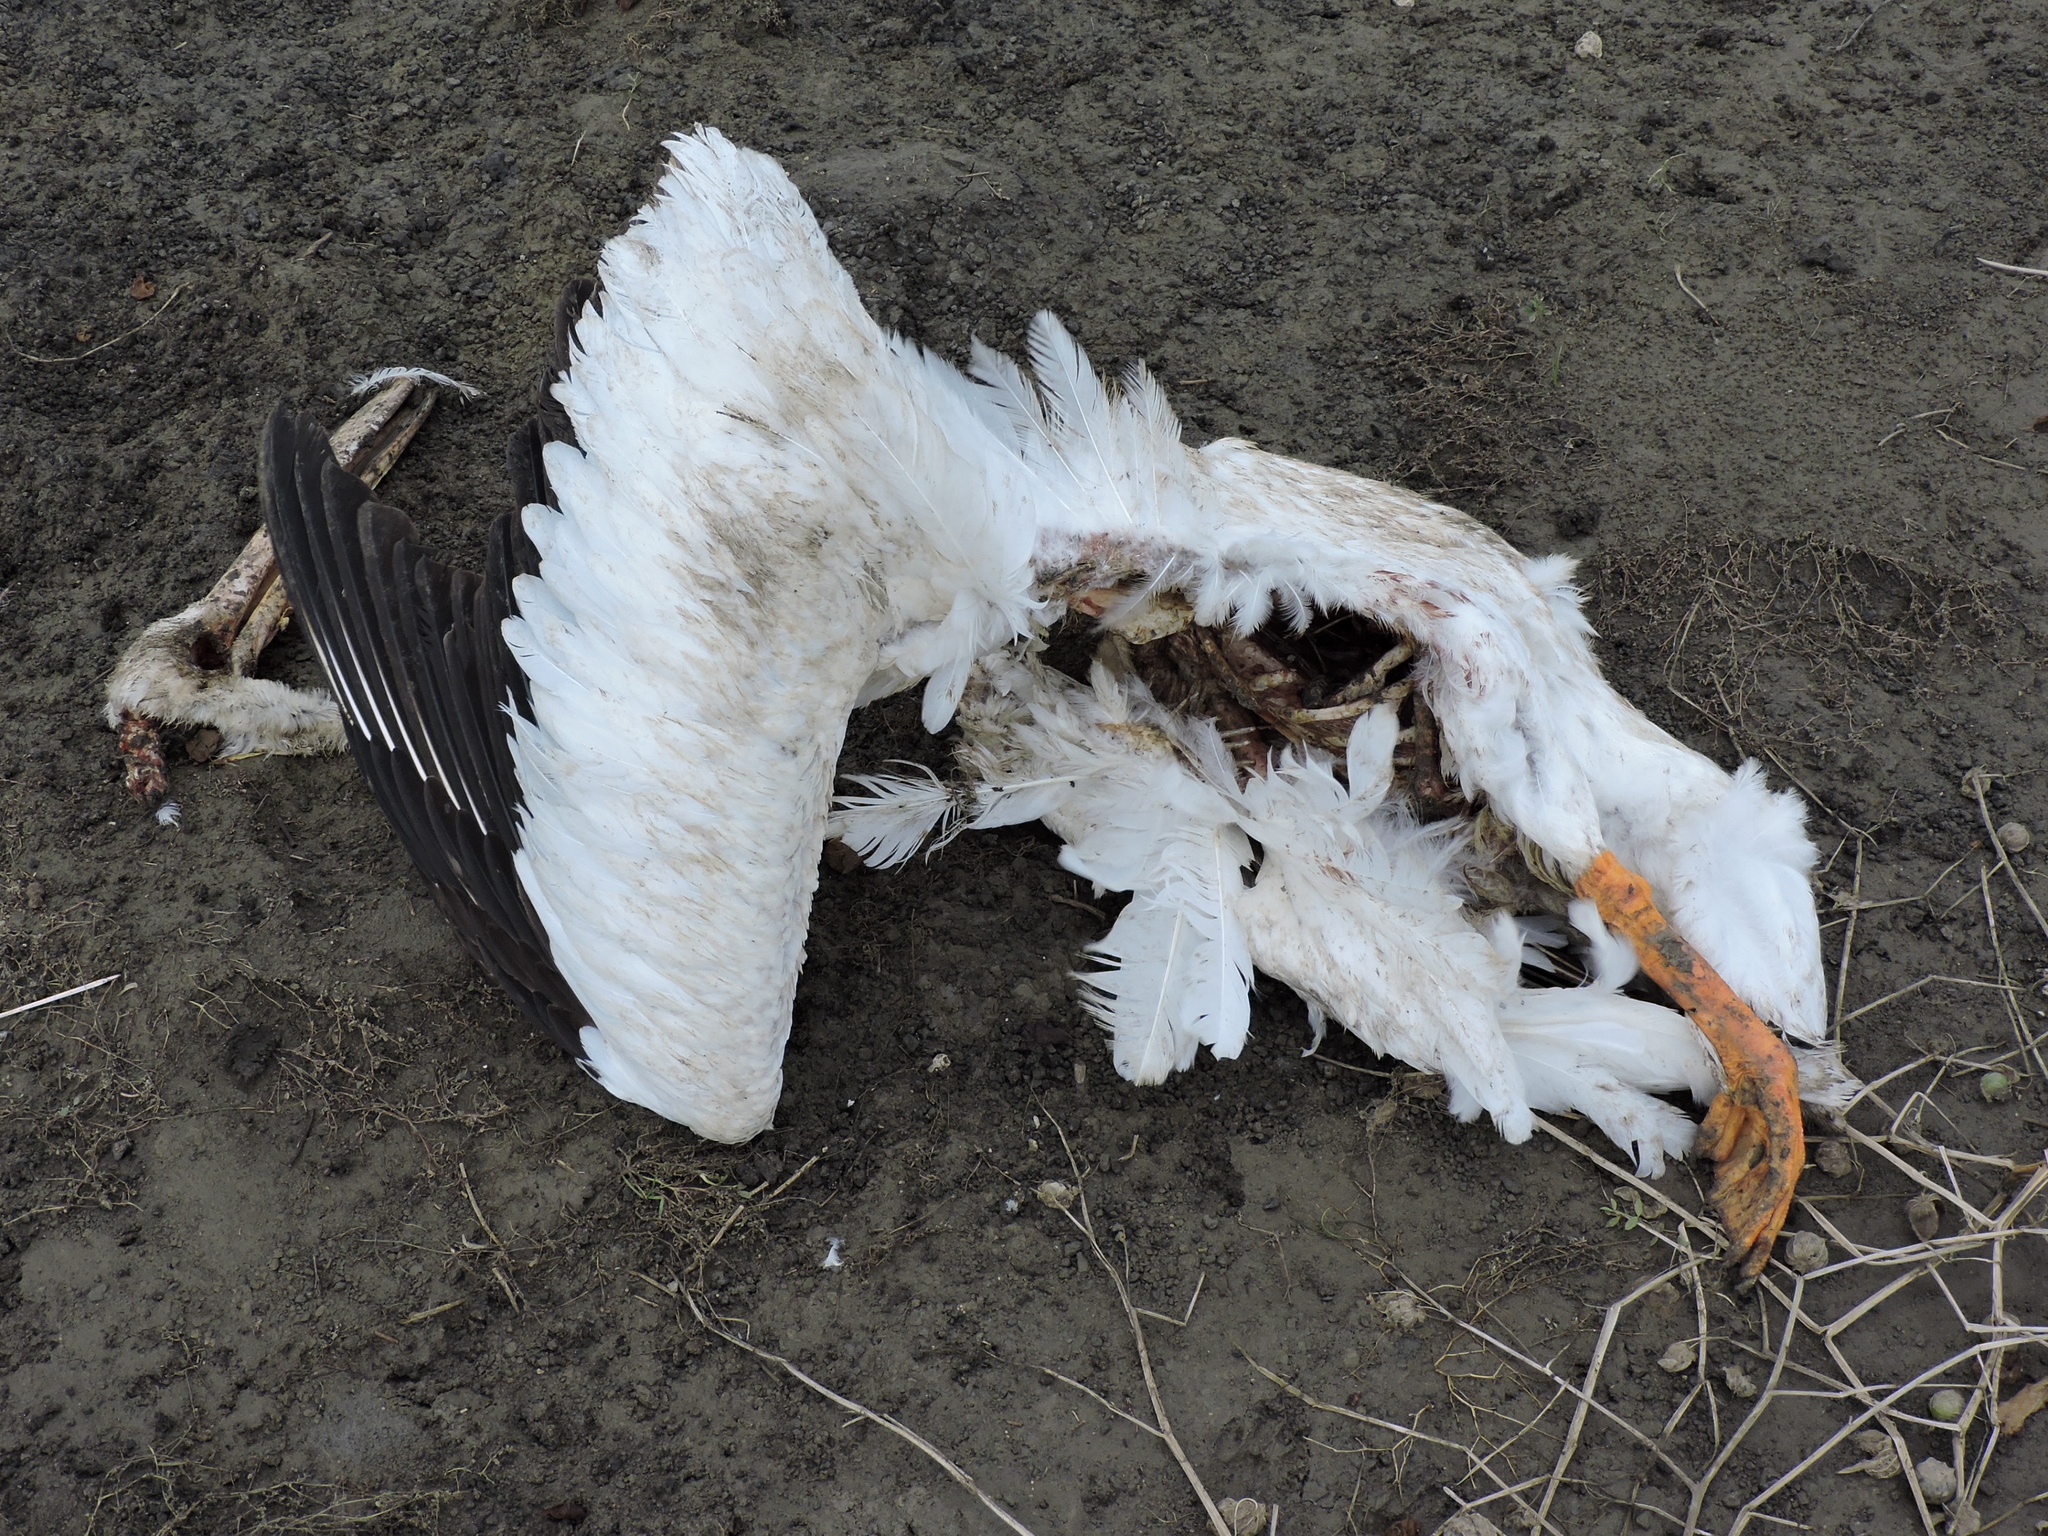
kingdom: Animalia
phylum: Chordata
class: Aves
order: Pelecaniformes
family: Pelecanidae
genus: Pelecanus
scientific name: Pelecanus erythrorhynchos
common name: American white pelican
